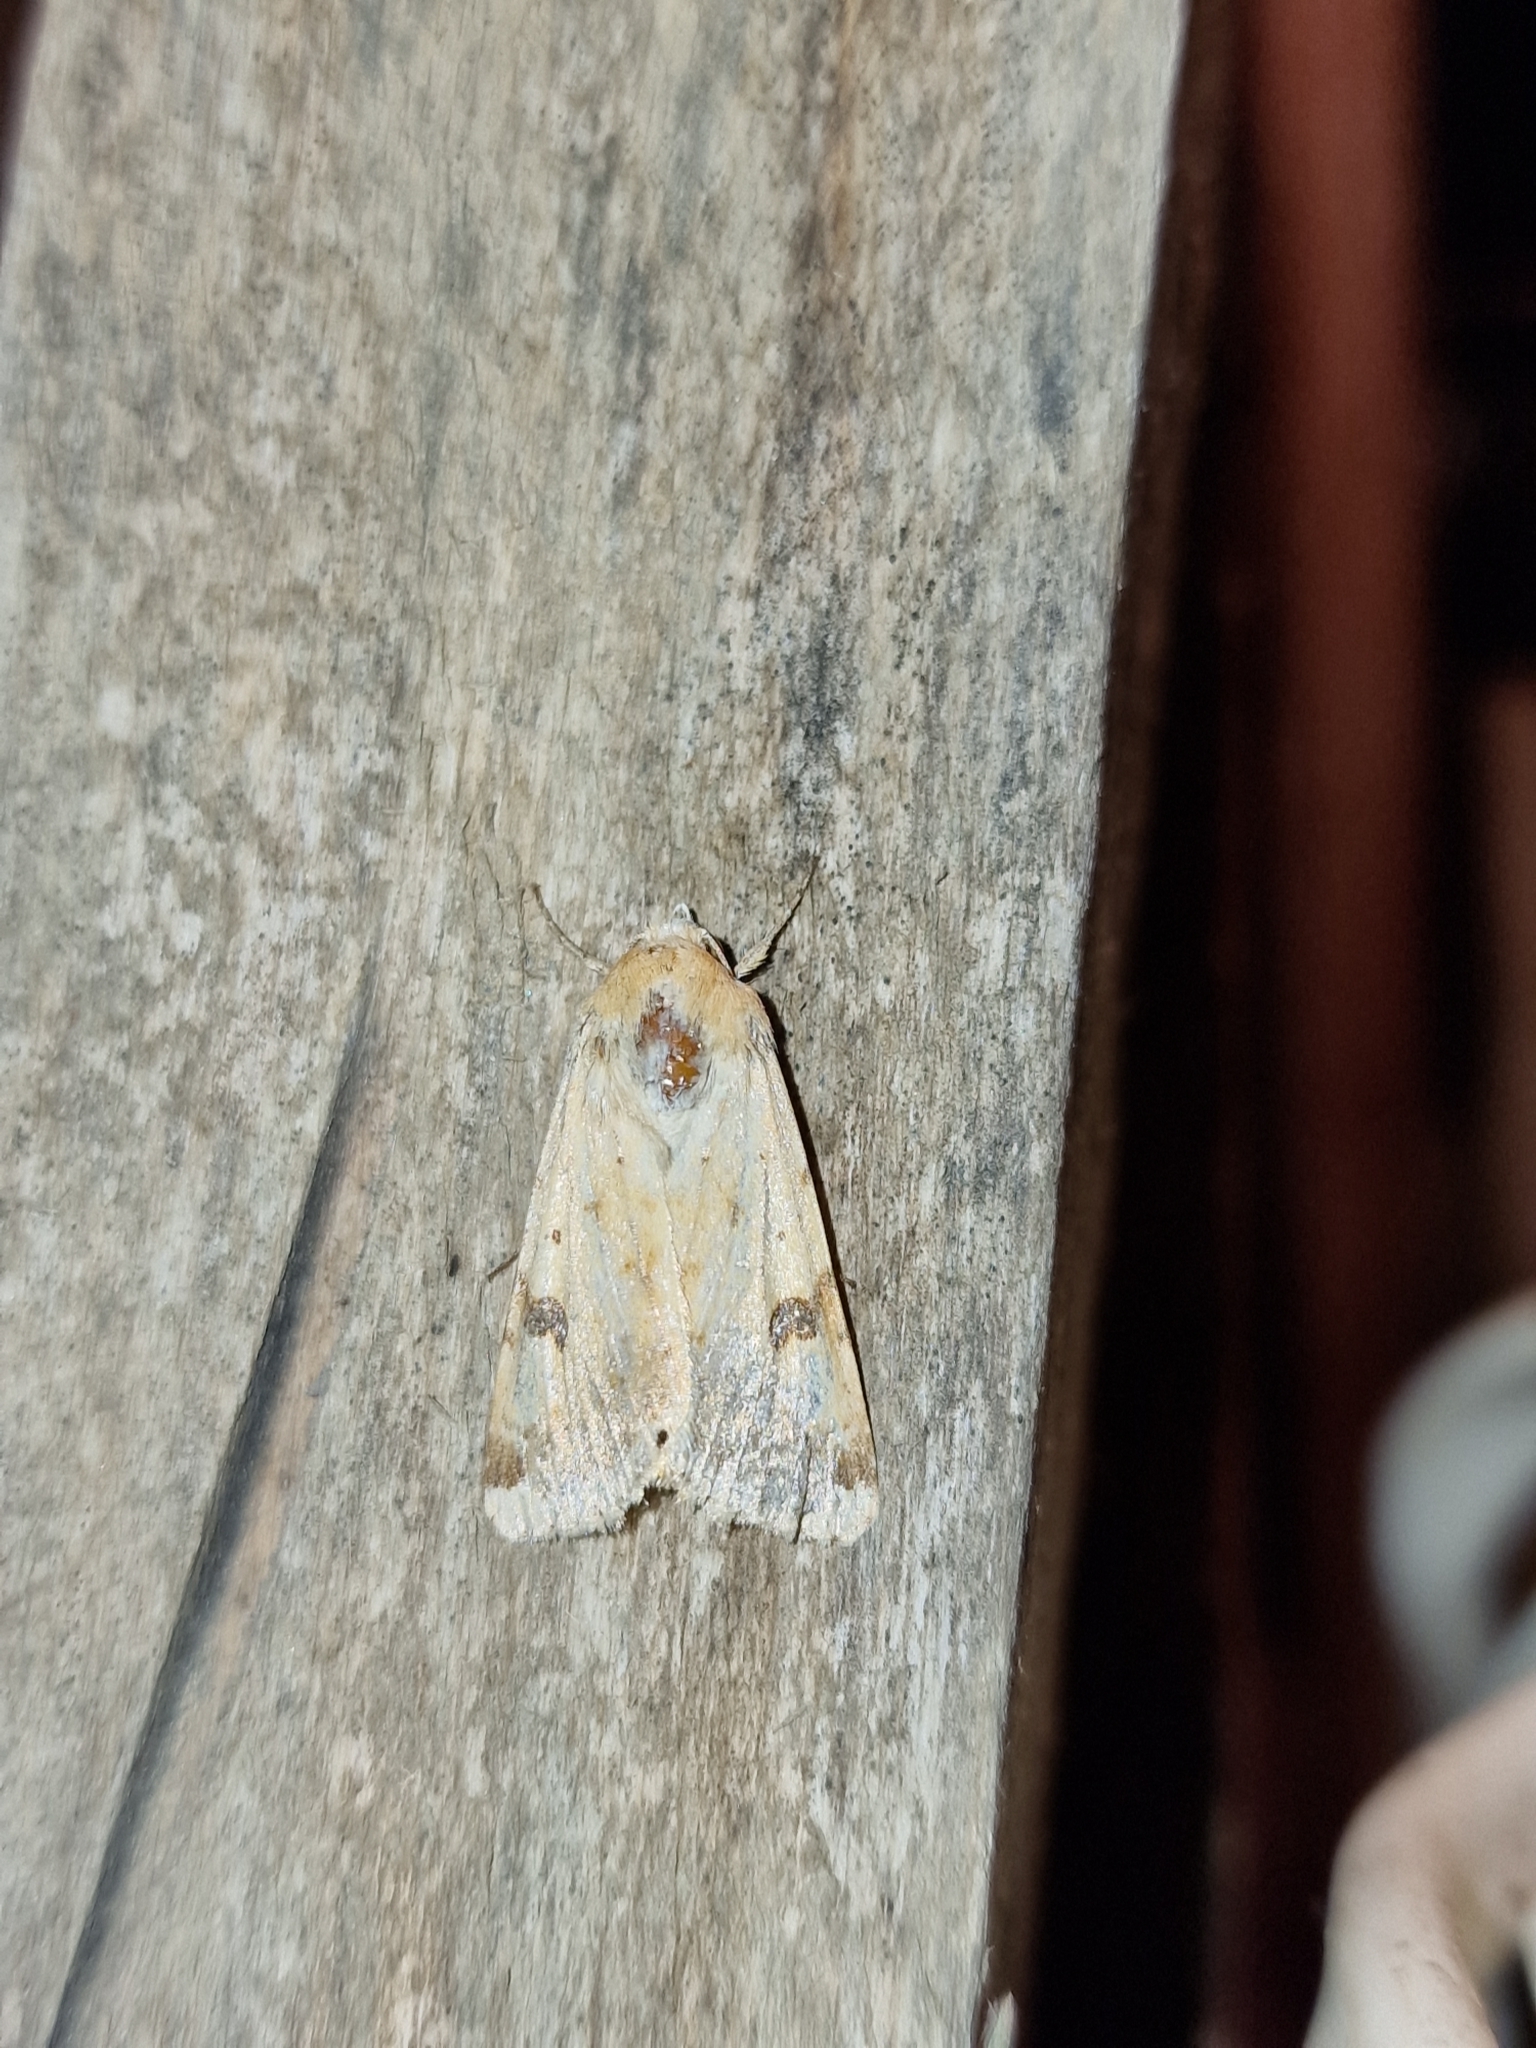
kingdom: Animalia
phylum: Arthropoda
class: Insecta
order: Lepidoptera
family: Noctuidae
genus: Heliothis
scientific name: Heliothis peltigera
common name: Bordered straw
